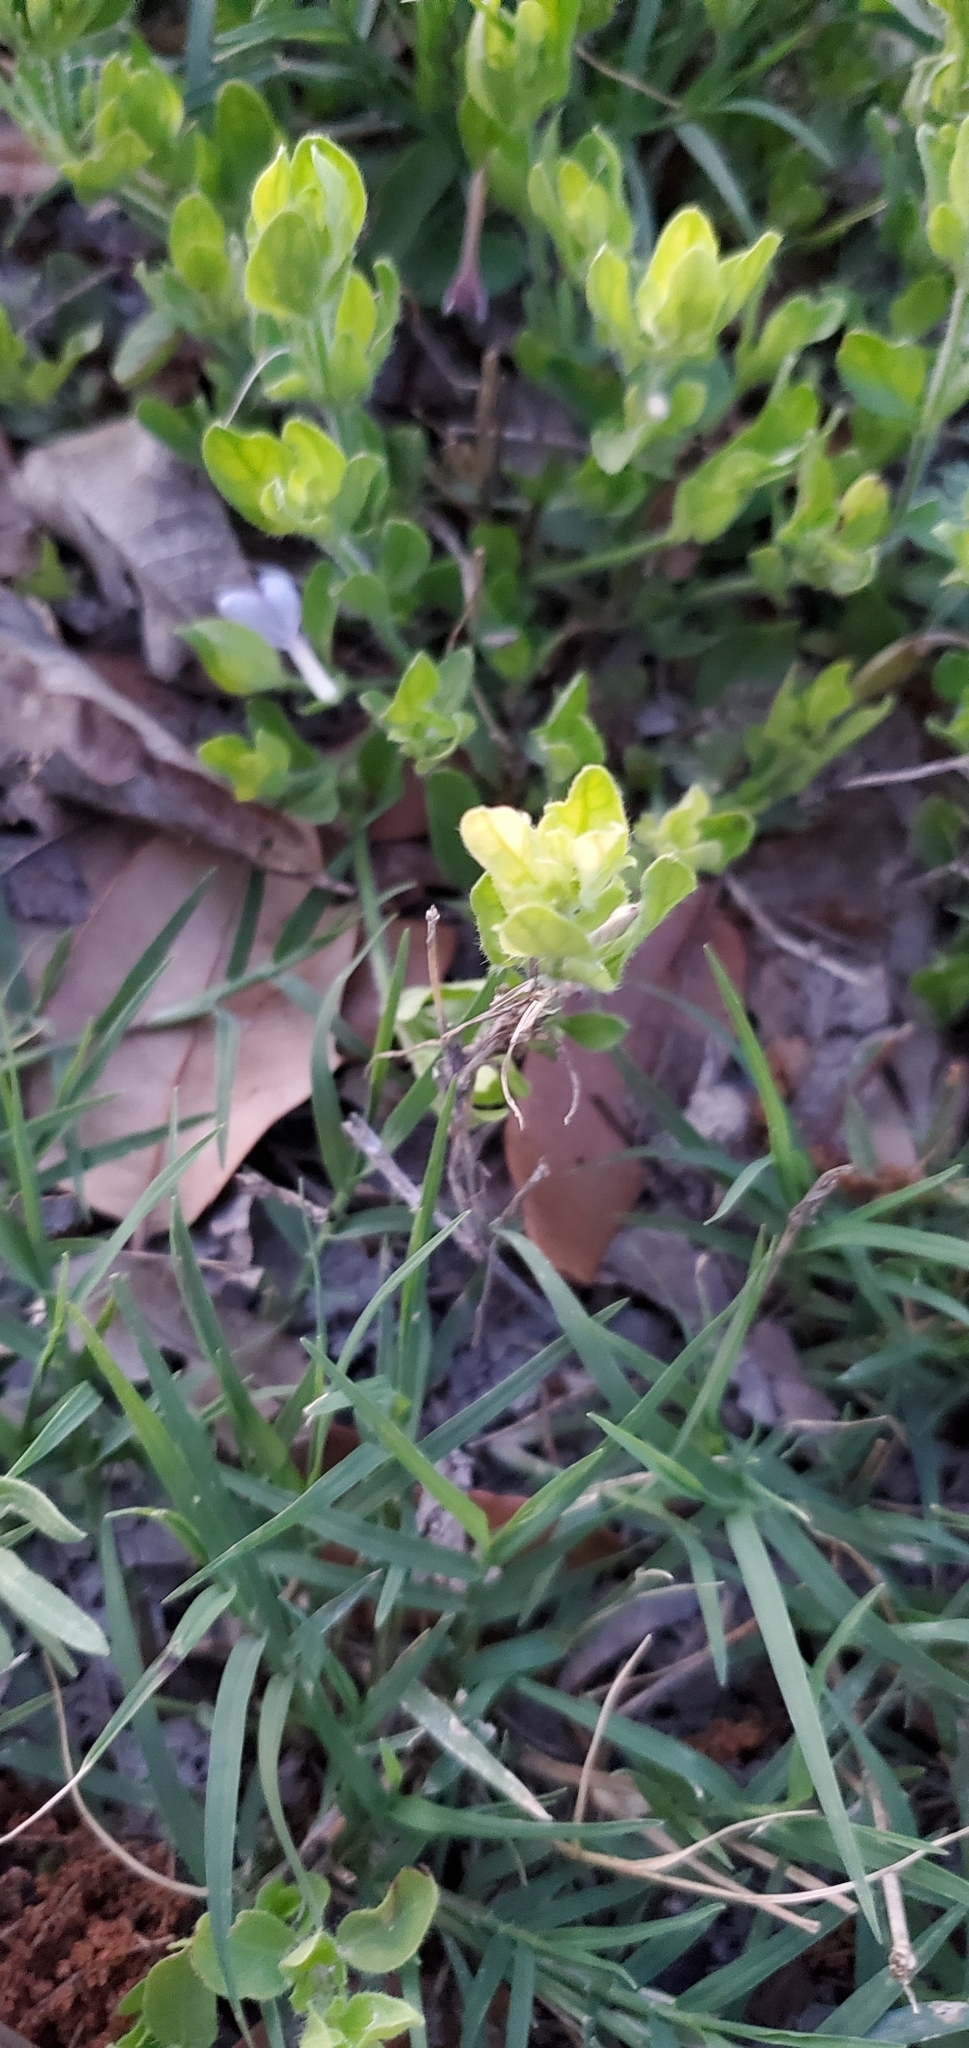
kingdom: Plantae
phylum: Tracheophyta
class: Magnoliopsida
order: Lamiales
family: Acanthaceae
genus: Justicia
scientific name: Justicia pilosella
